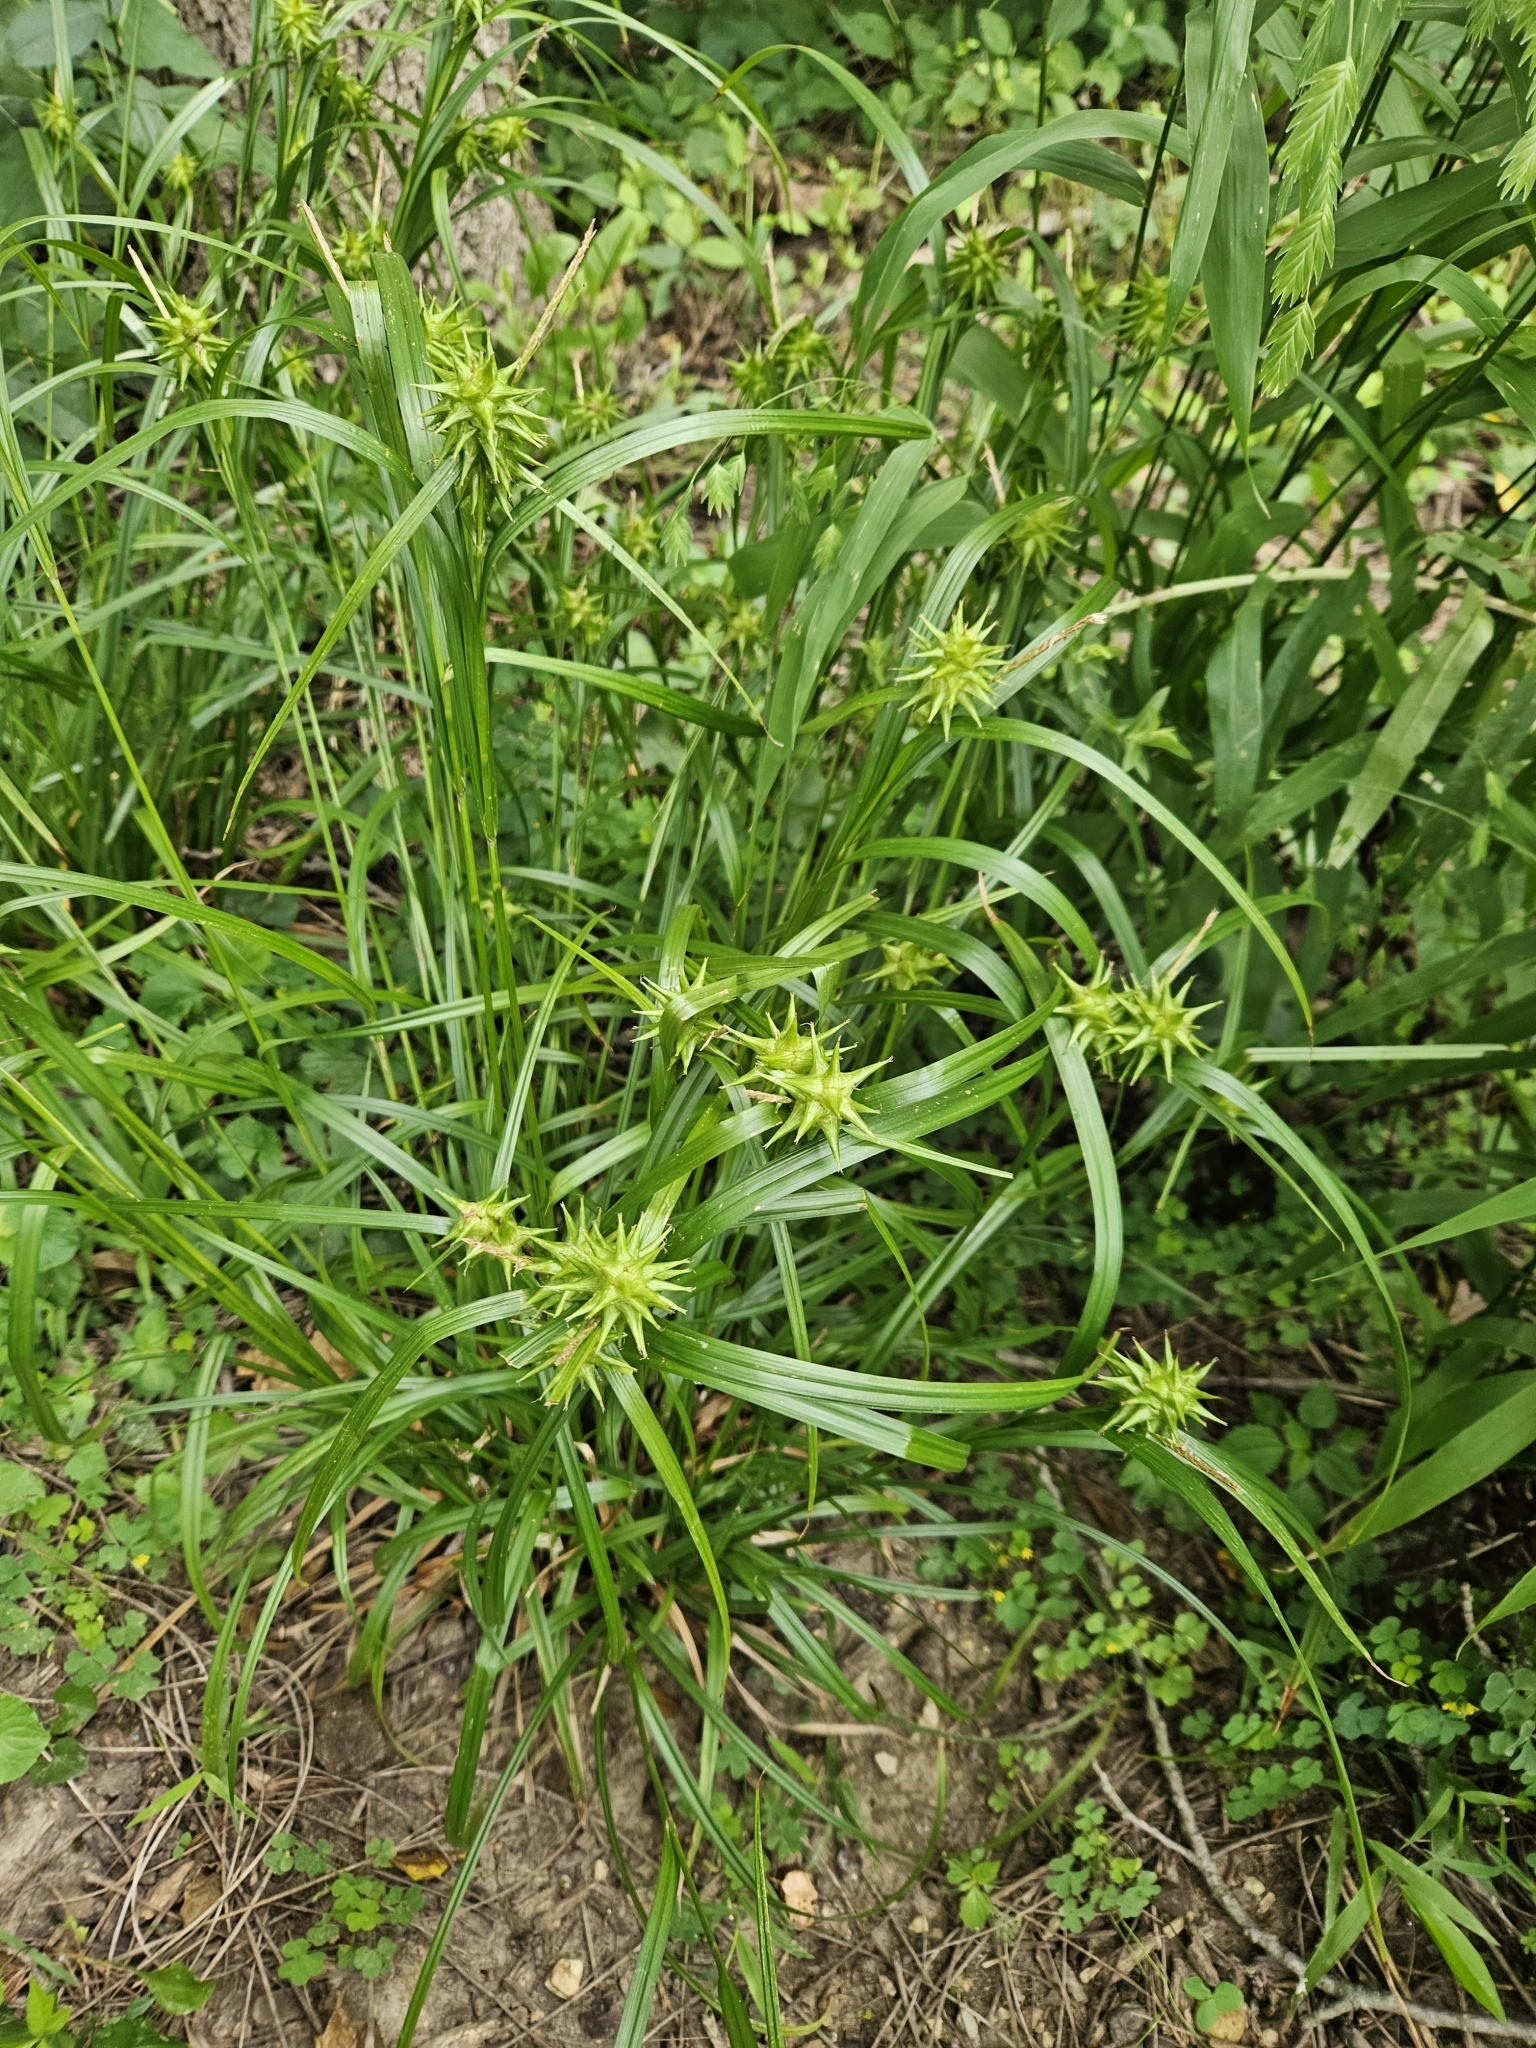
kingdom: Plantae
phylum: Tracheophyta
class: Liliopsida
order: Poales
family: Cyperaceae
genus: Carex
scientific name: Carex grayi
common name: Asa gray's sedge
